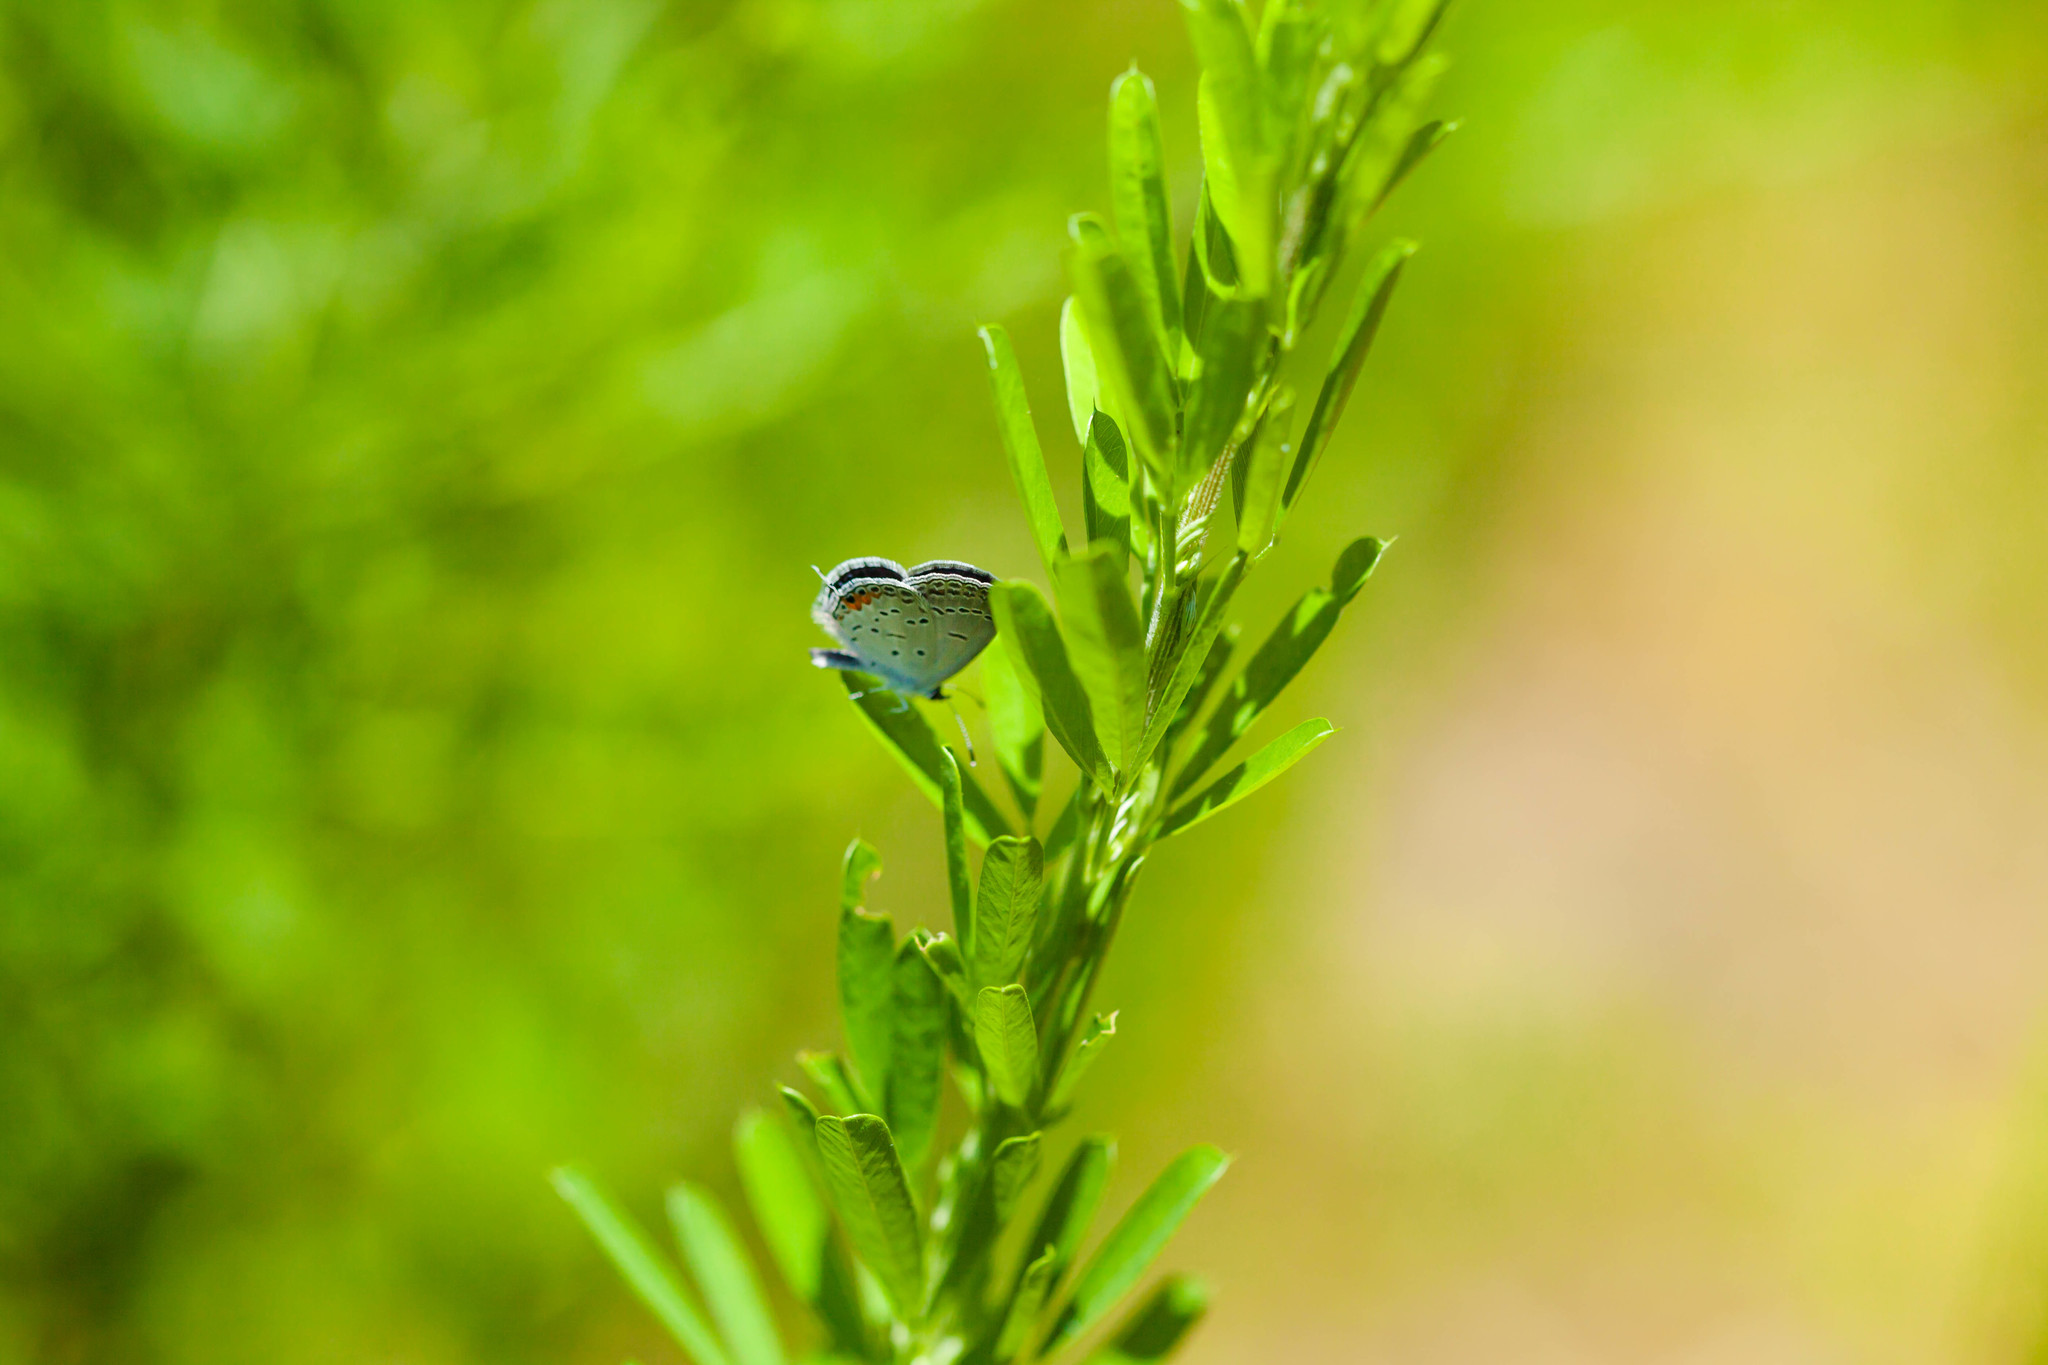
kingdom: Animalia
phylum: Arthropoda
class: Insecta
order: Lepidoptera
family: Lycaenidae
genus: Elkalyce
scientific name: Elkalyce comyntas
